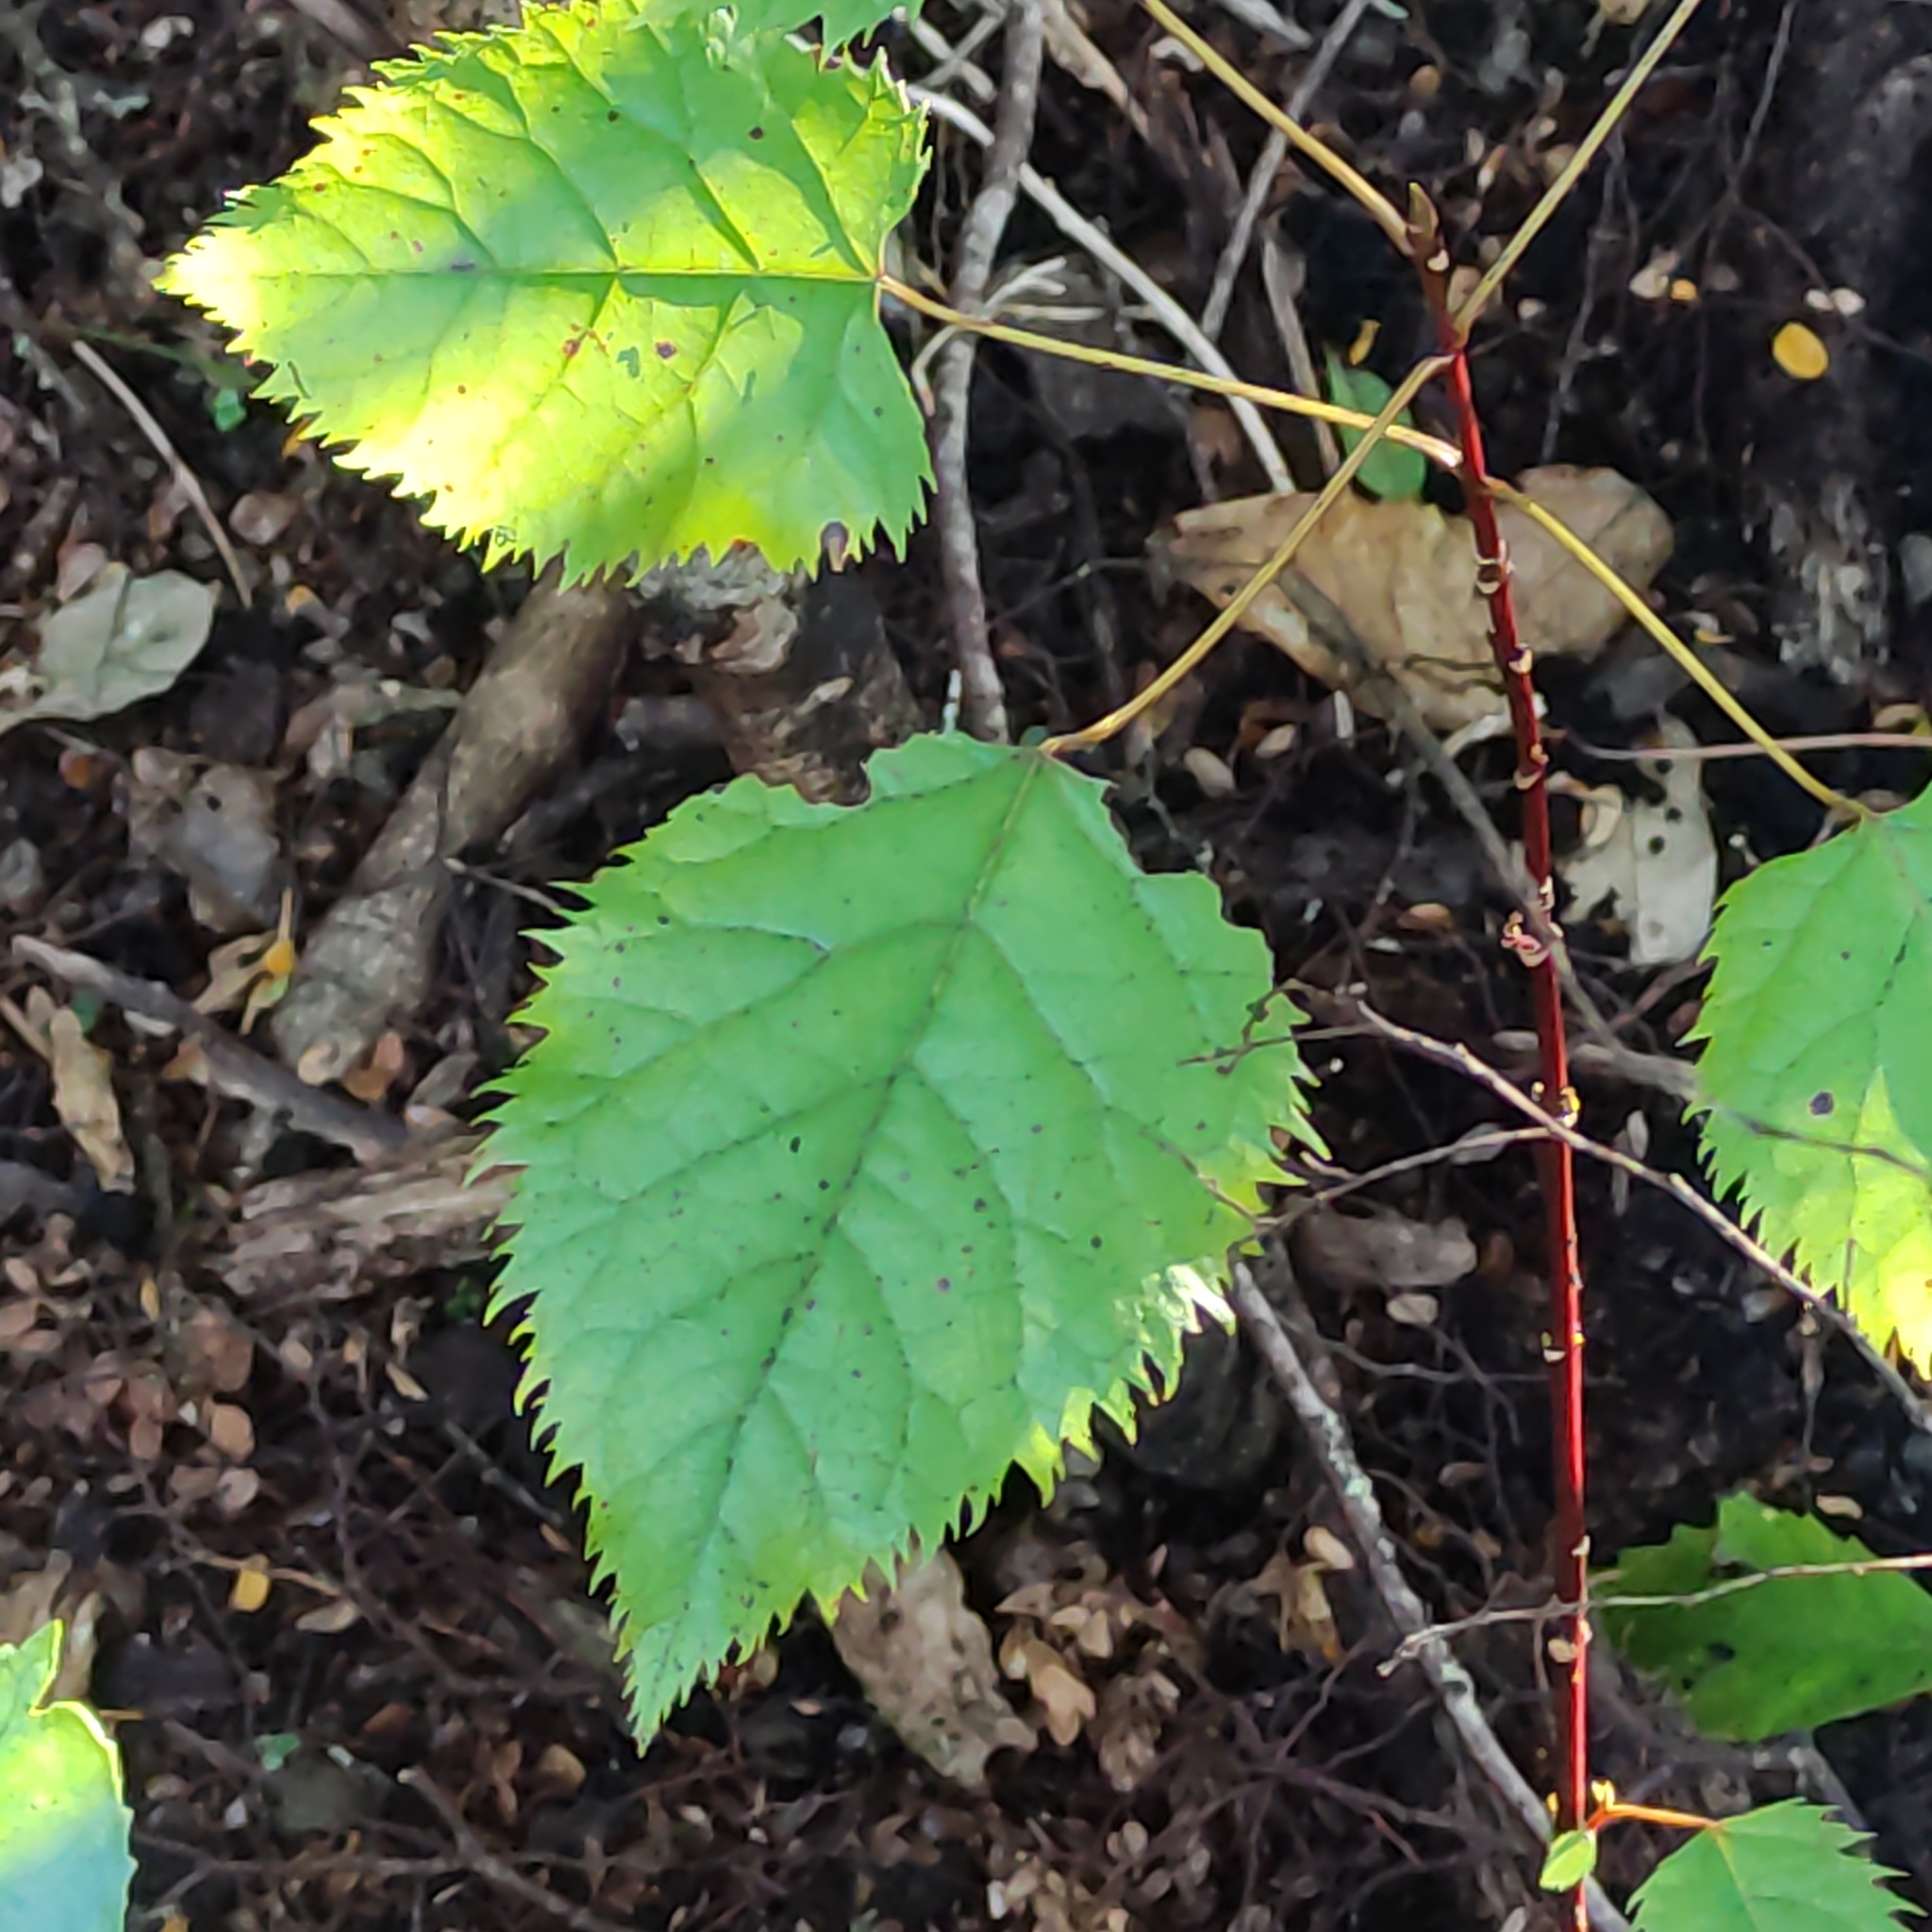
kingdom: Plantae
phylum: Tracheophyta
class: Magnoliopsida
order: Oxalidales
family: Elaeocarpaceae
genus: Aristotelia
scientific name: Aristotelia serrata
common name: New zealand wineberry
